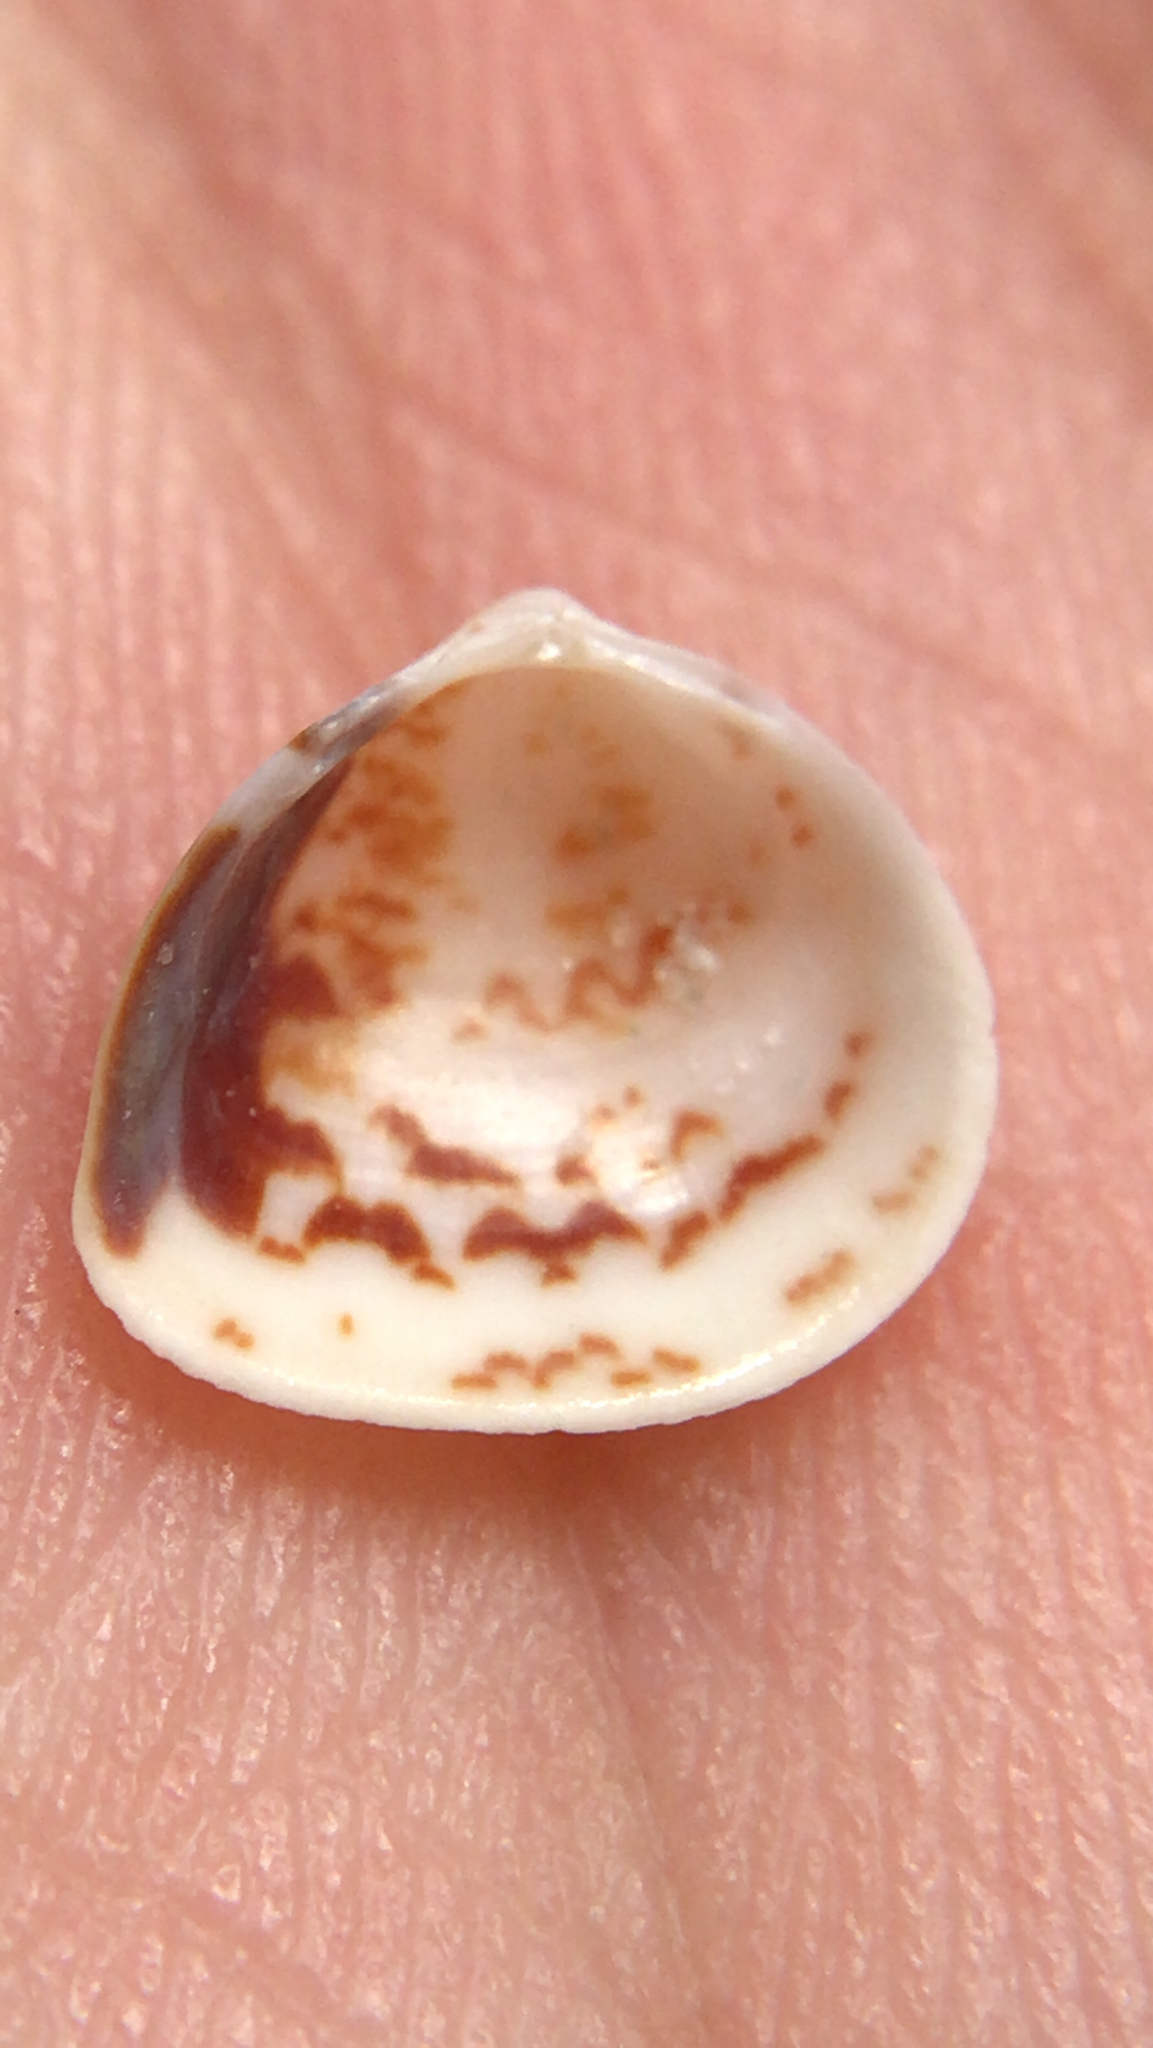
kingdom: Animalia
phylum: Mollusca
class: Bivalvia
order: Cardiida
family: Cardiidae
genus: Laevicardium
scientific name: Laevicardium mortoni
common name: Morton eggcockle
